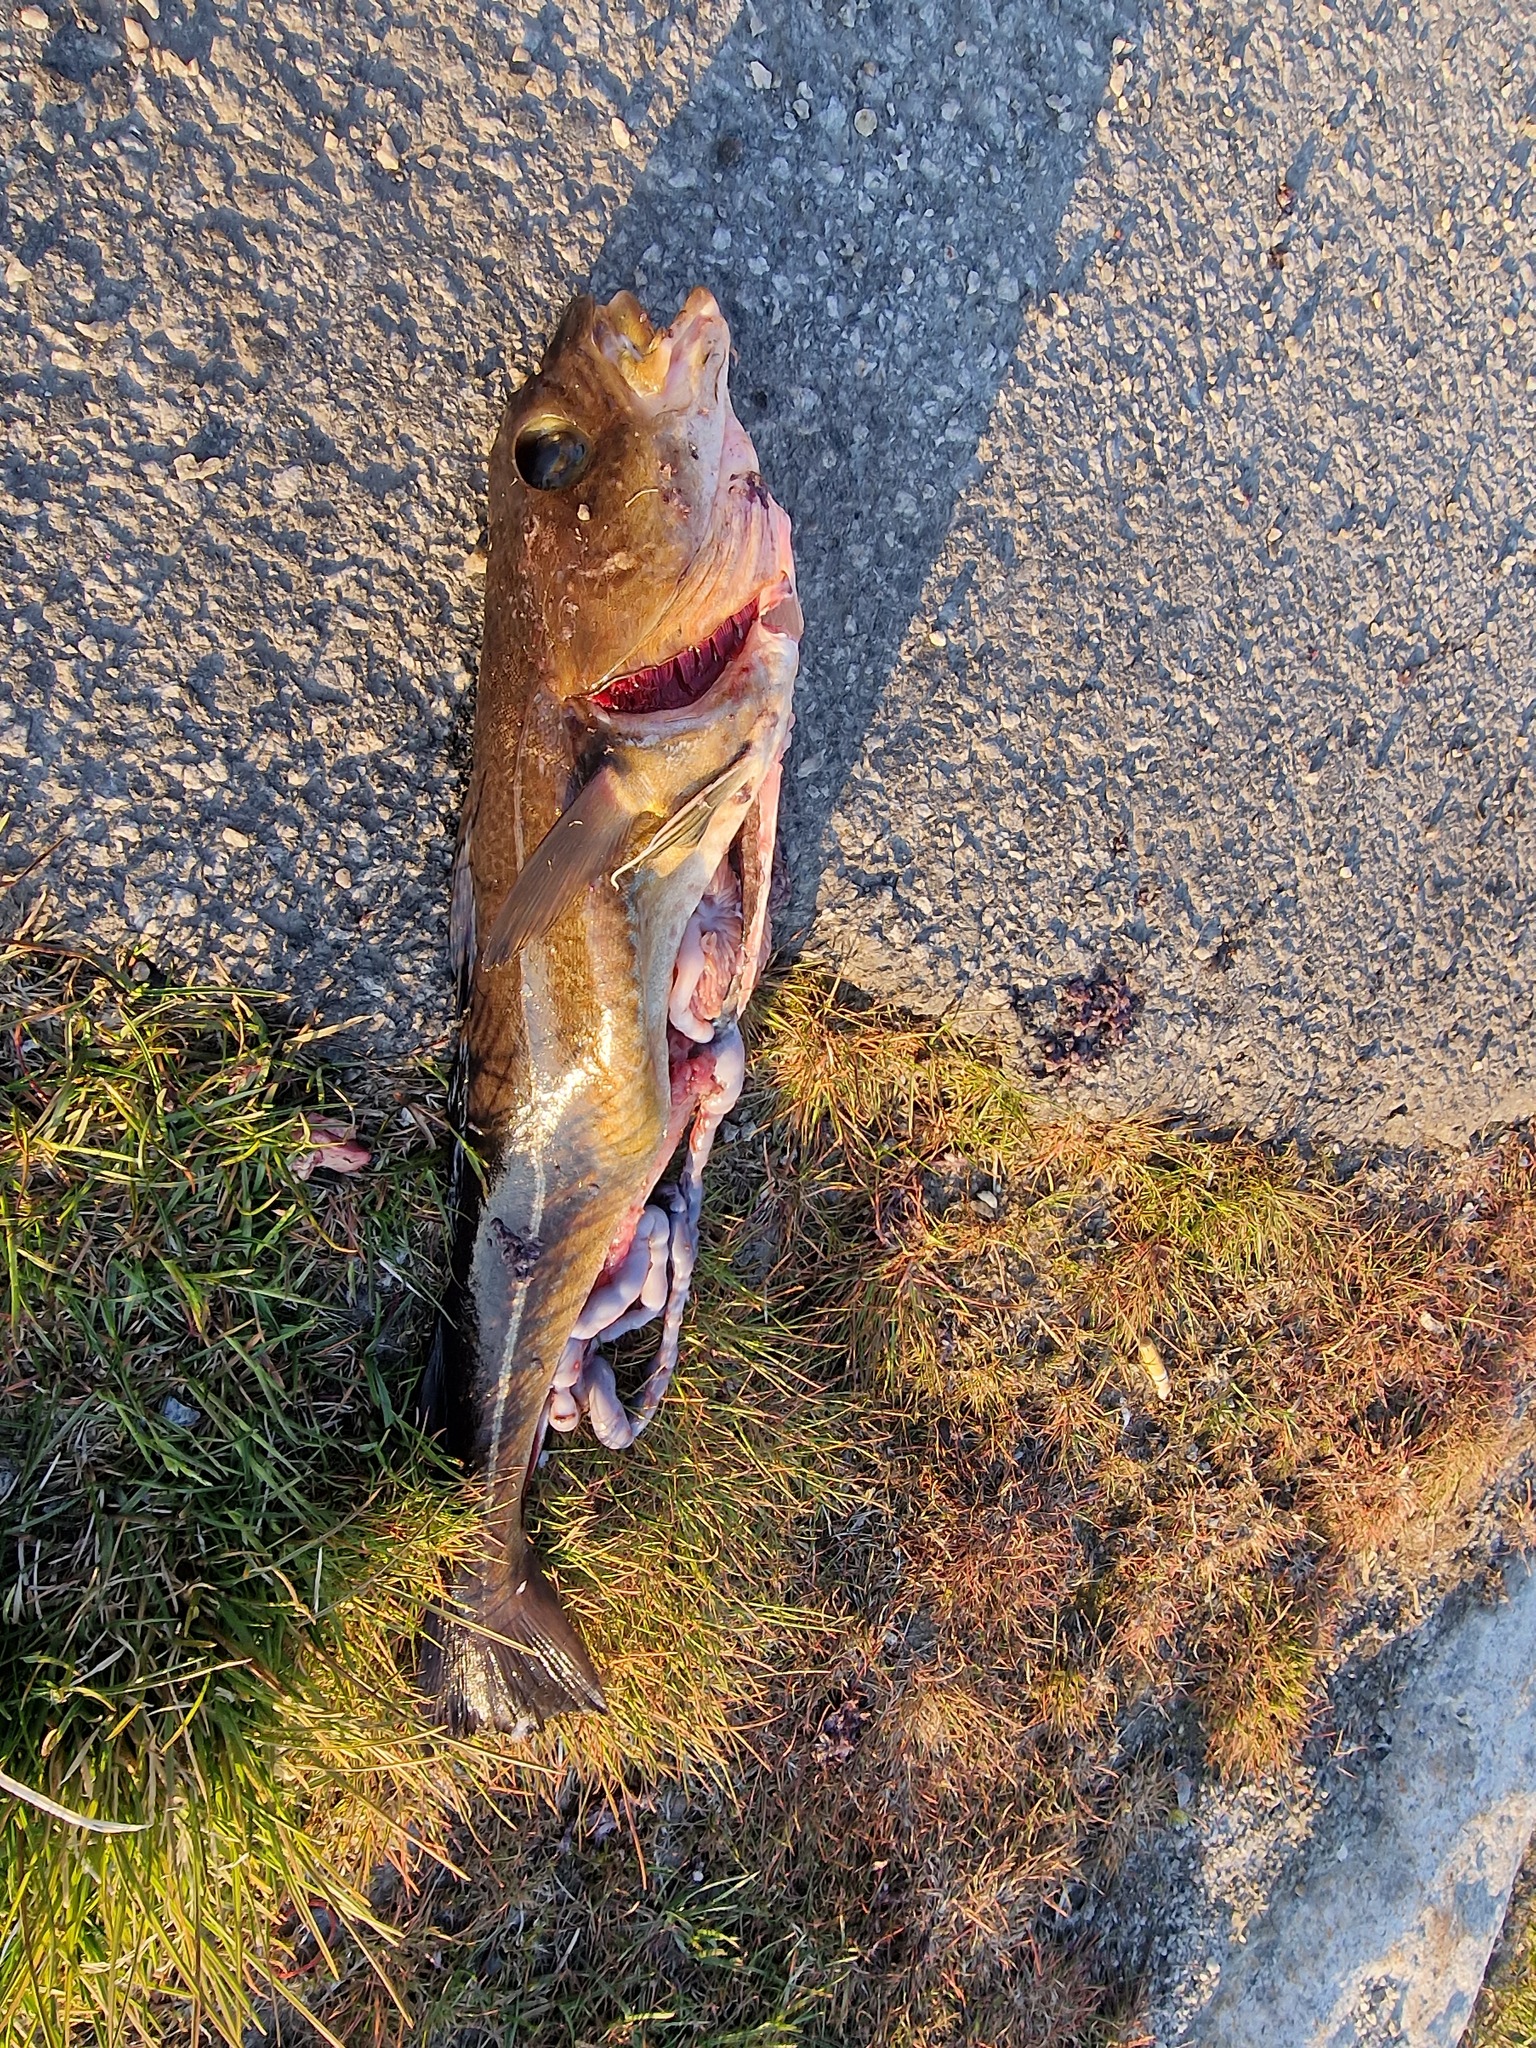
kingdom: Animalia
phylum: Chordata
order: Gadiformes
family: Gadidae
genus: Gadus
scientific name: Gadus morhua
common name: Atlantic cod
